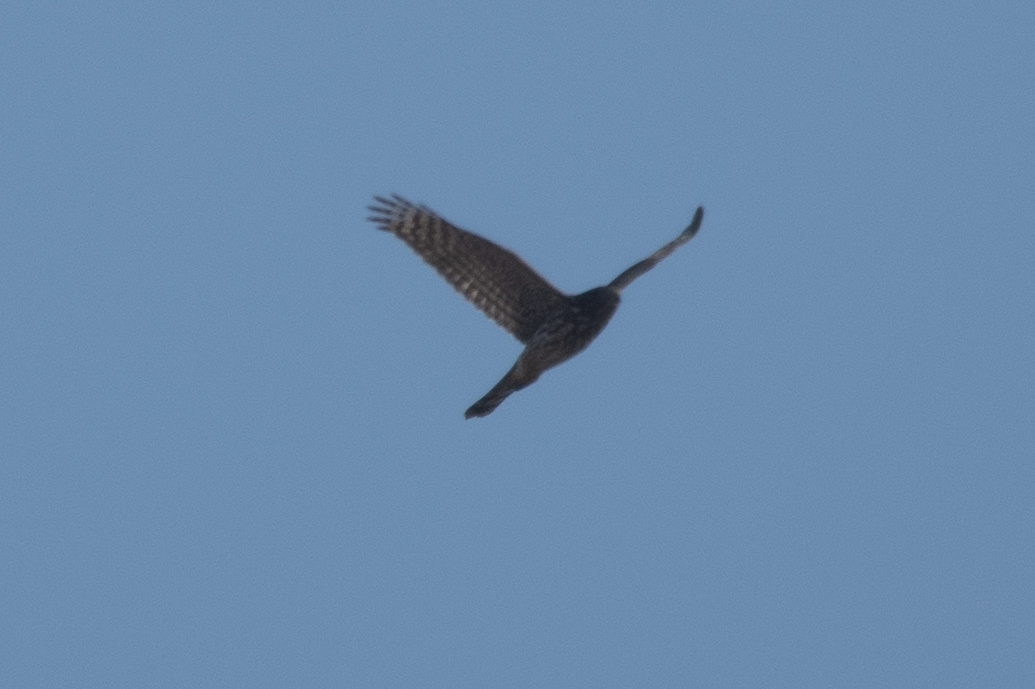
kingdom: Animalia
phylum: Chordata
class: Aves
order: Accipitriformes
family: Accipitridae
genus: Accipiter
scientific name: Accipiter cooperii
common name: Cooper's hawk
